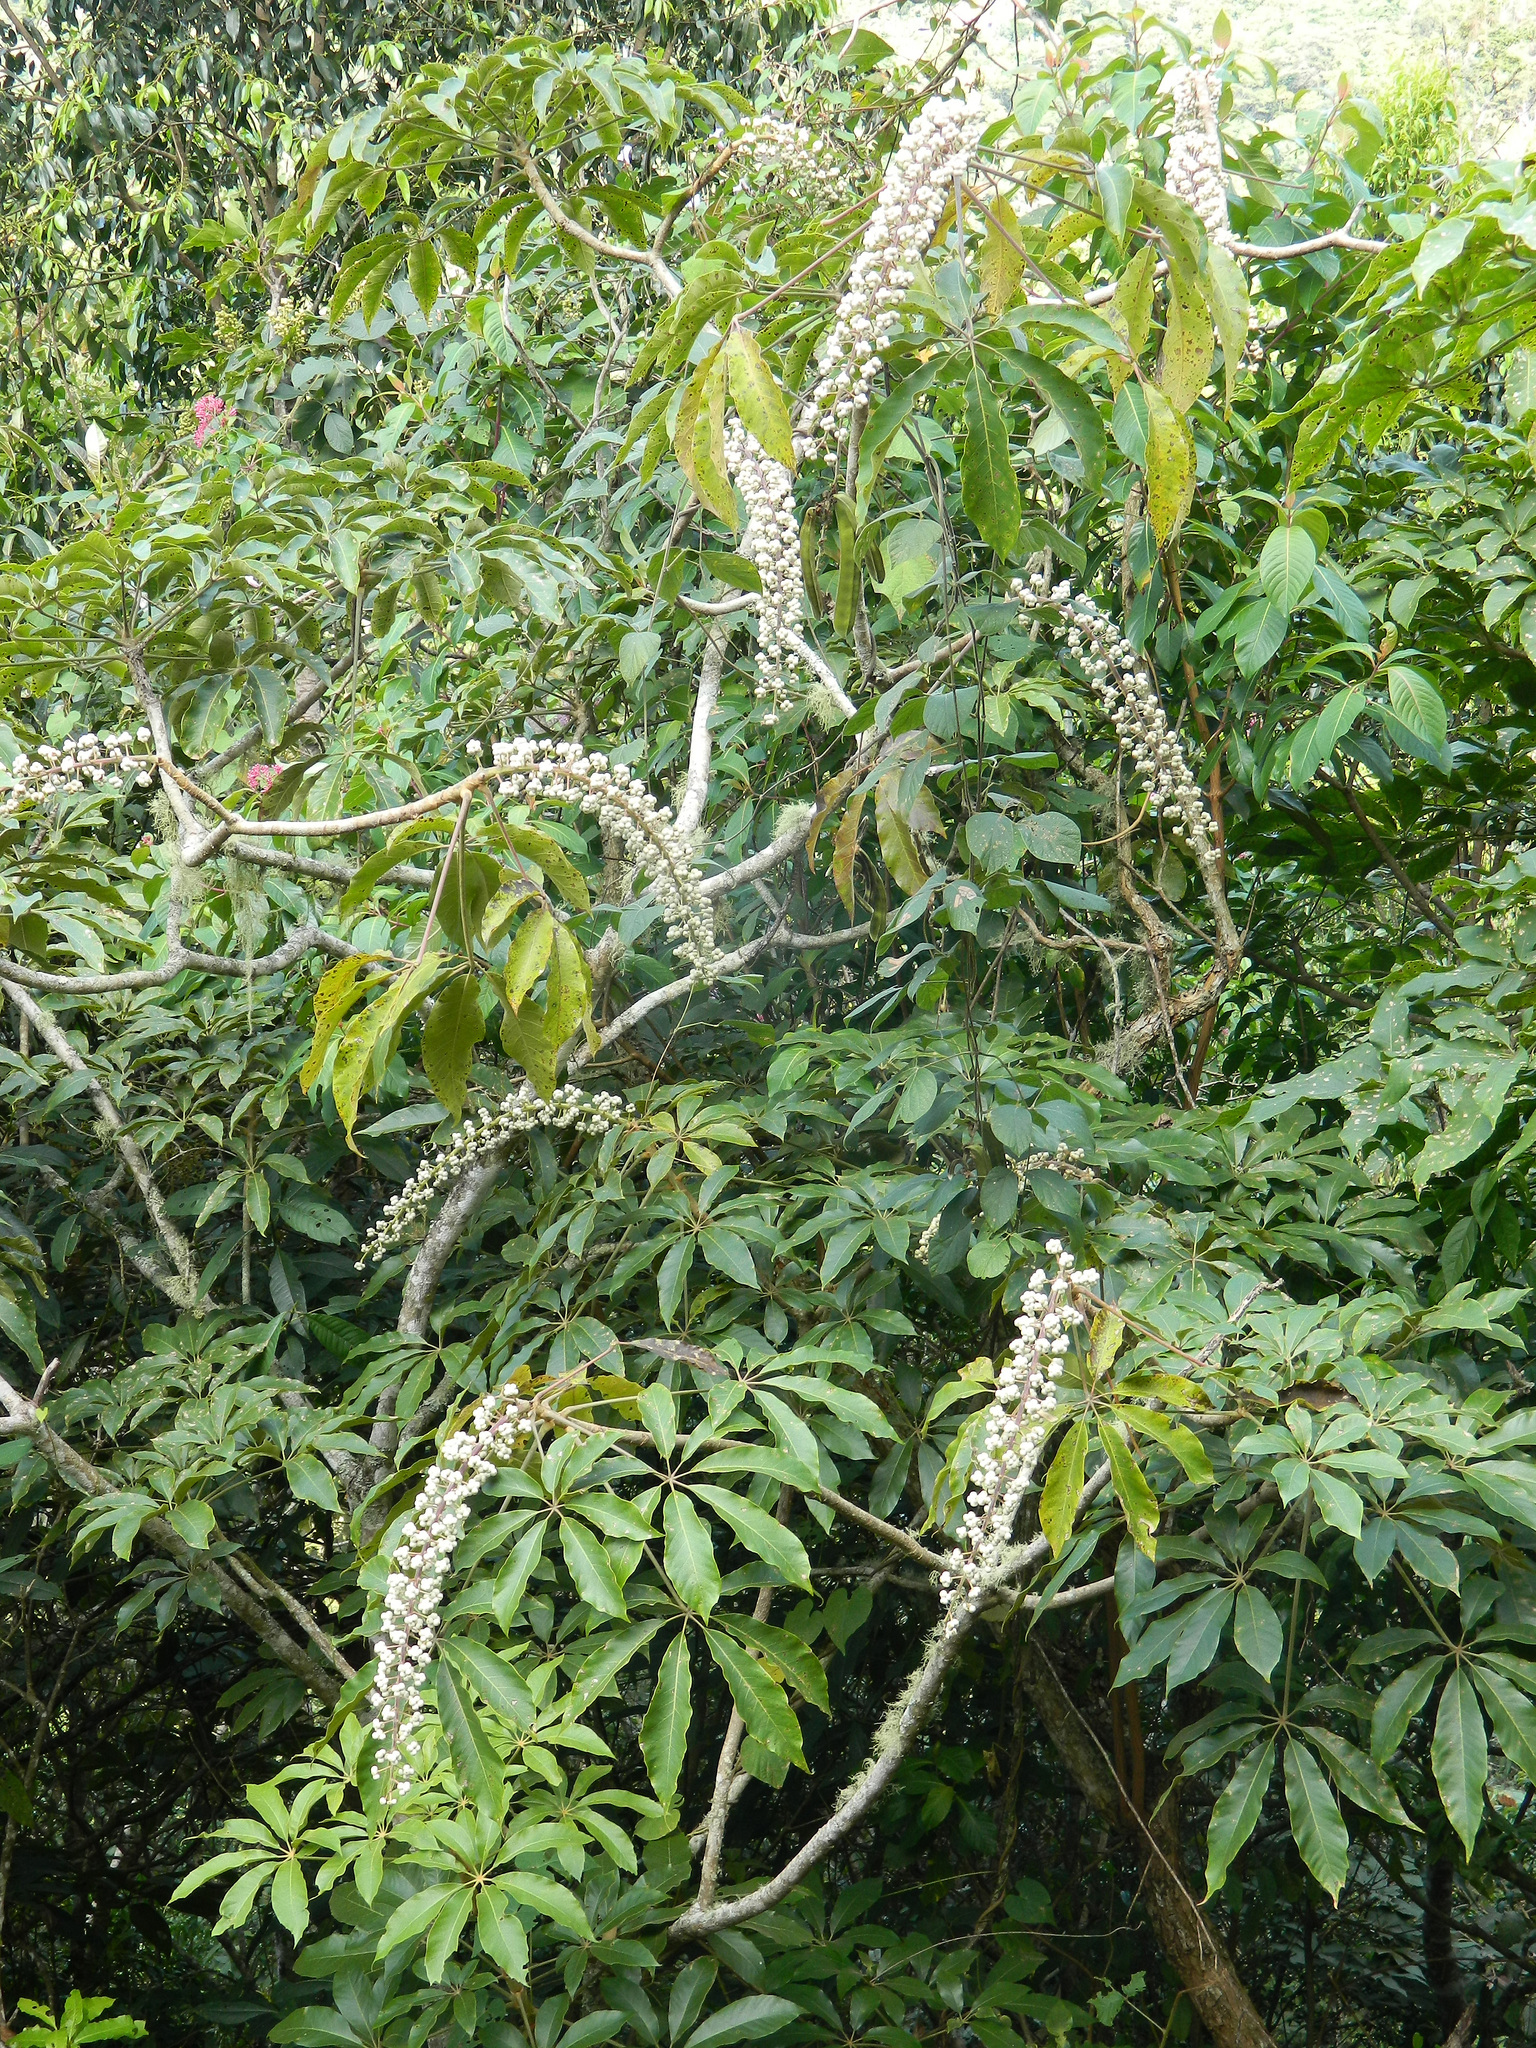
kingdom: Plantae
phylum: Tracheophyta
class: Magnoliopsida
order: Apiales
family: Araliaceae
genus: Oreopanax
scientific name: Oreopanax xalapensis
